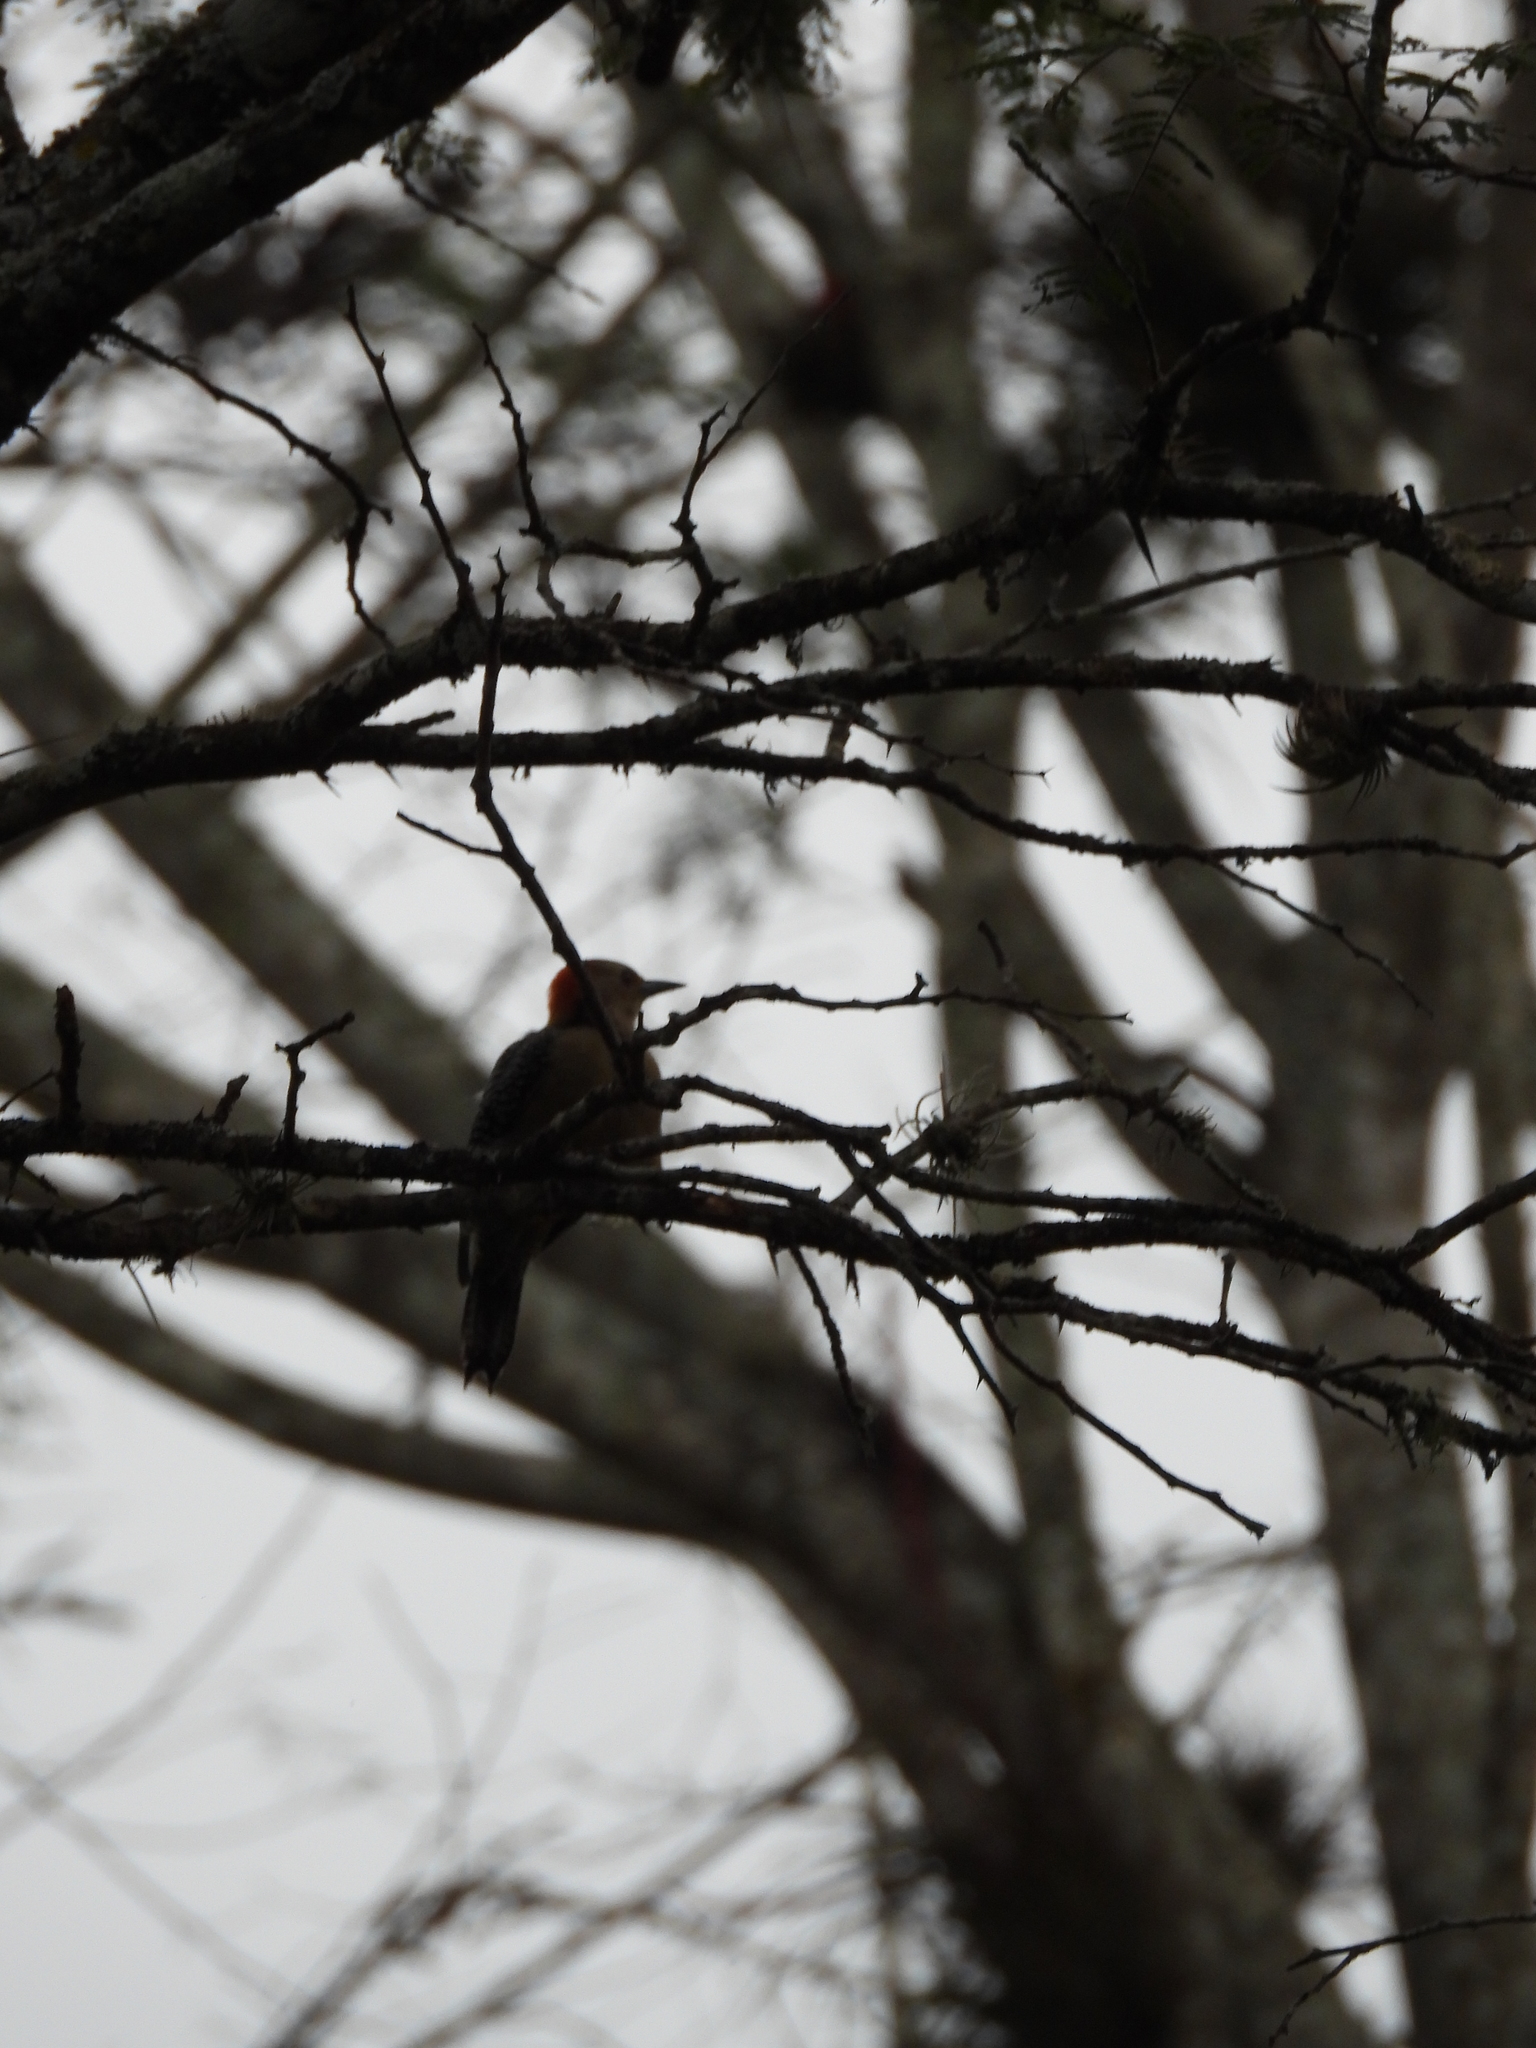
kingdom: Animalia
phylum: Chordata
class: Aves
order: Piciformes
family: Picidae
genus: Melanerpes
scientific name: Melanerpes aurifrons
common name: Golden-fronted woodpecker
